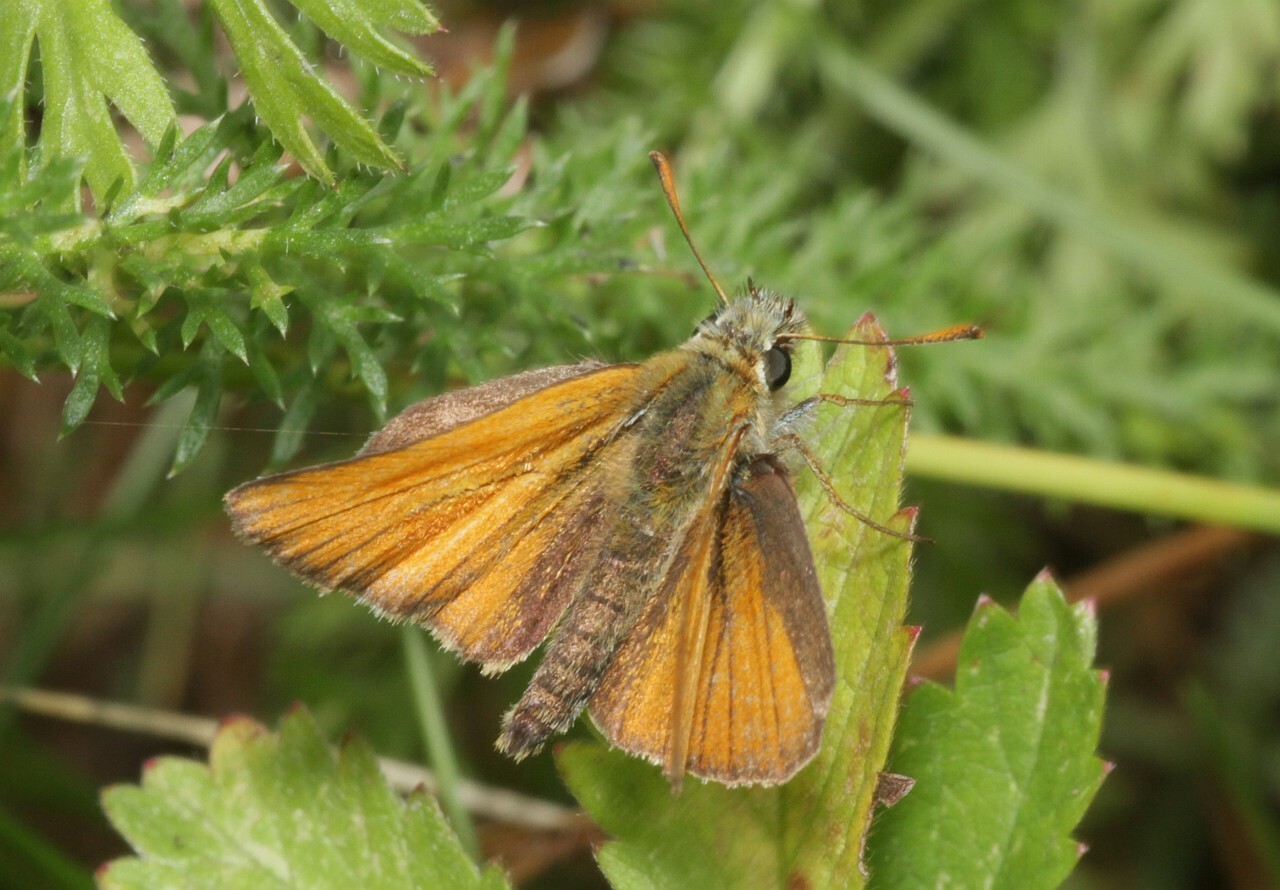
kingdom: Animalia
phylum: Arthropoda
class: Insecta
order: Lepidoptera
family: Hesperiidae
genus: Thymelicus
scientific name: Thymelicus sylvestris
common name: Small skipper
